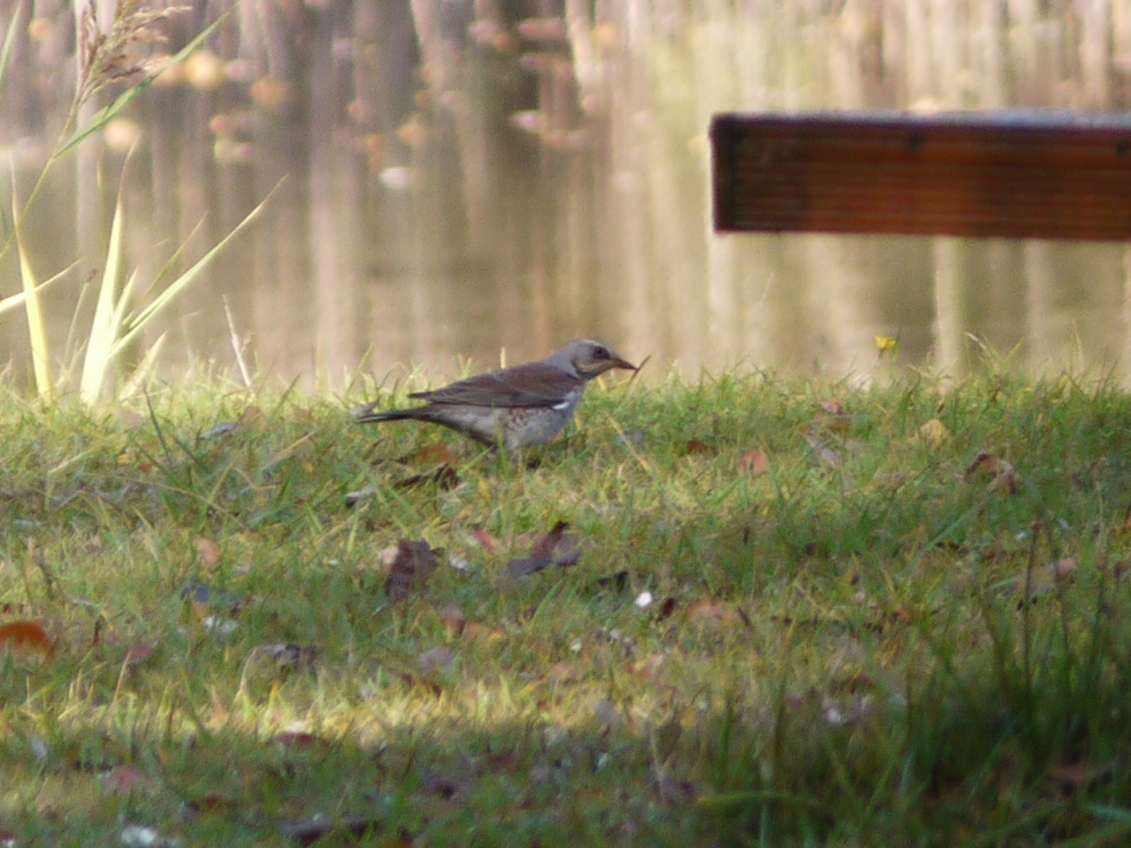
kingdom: Animalia
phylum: Chordata
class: Aves
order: Passeriformes
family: Turdidae
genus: Turdus
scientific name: Turdus pilaris
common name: Fieldfare
